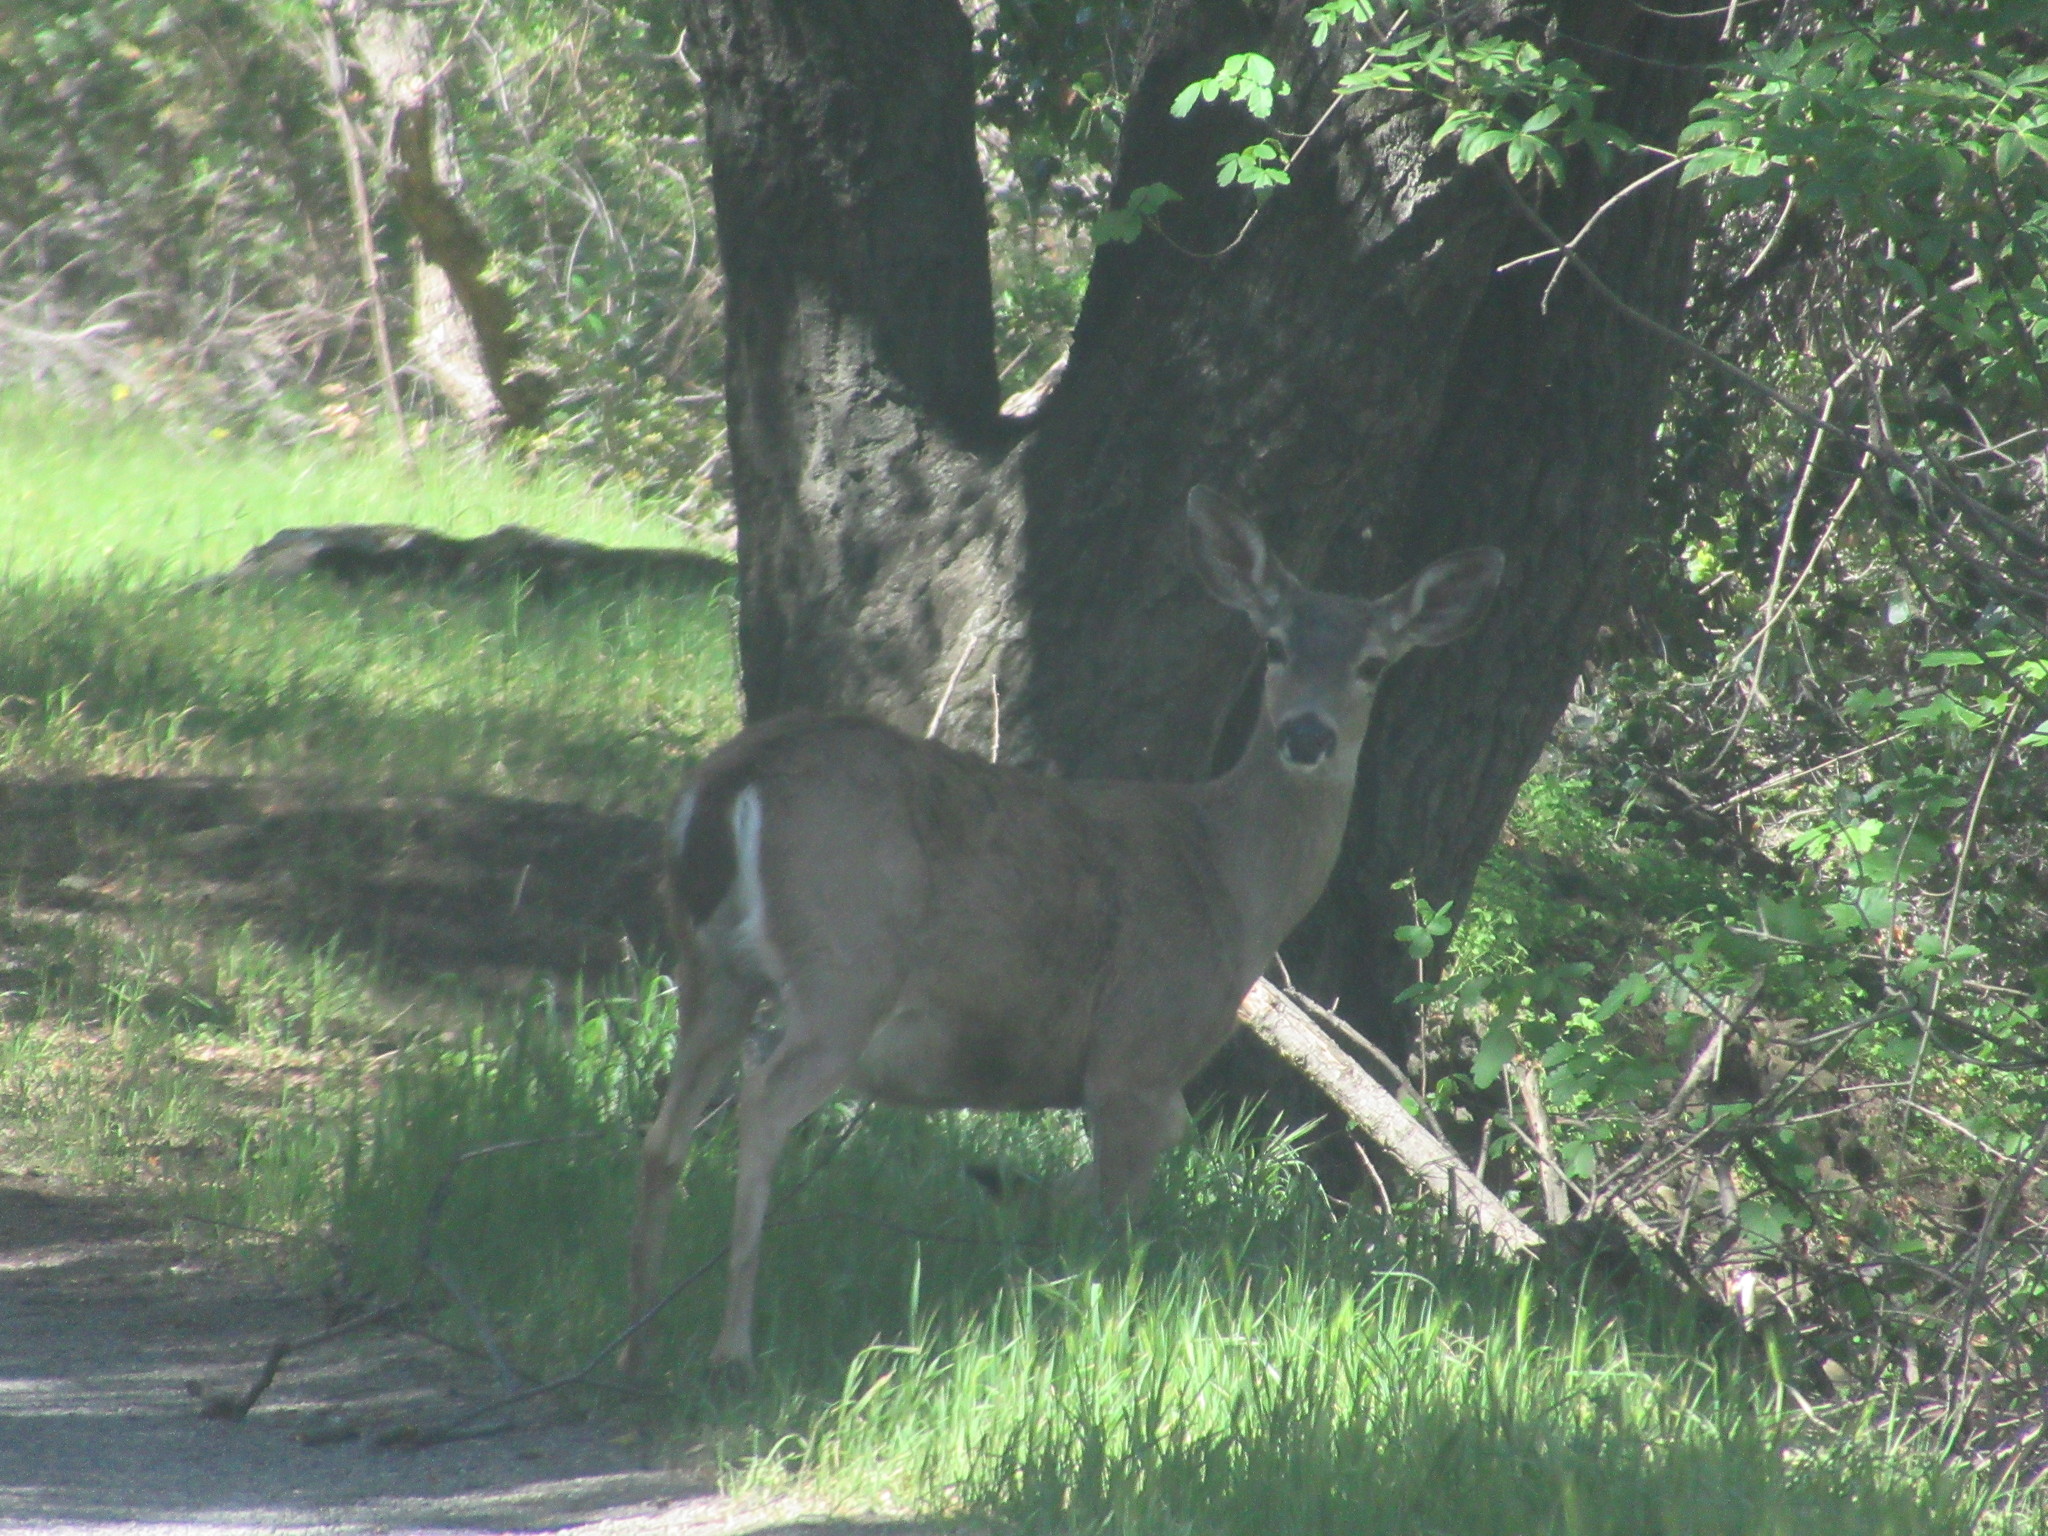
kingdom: Animalia
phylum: Chordata
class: Mammalia
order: Artiodactyla
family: Cervidae
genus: Odocoileus
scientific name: Odocoileus hemionus
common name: Mule deer
